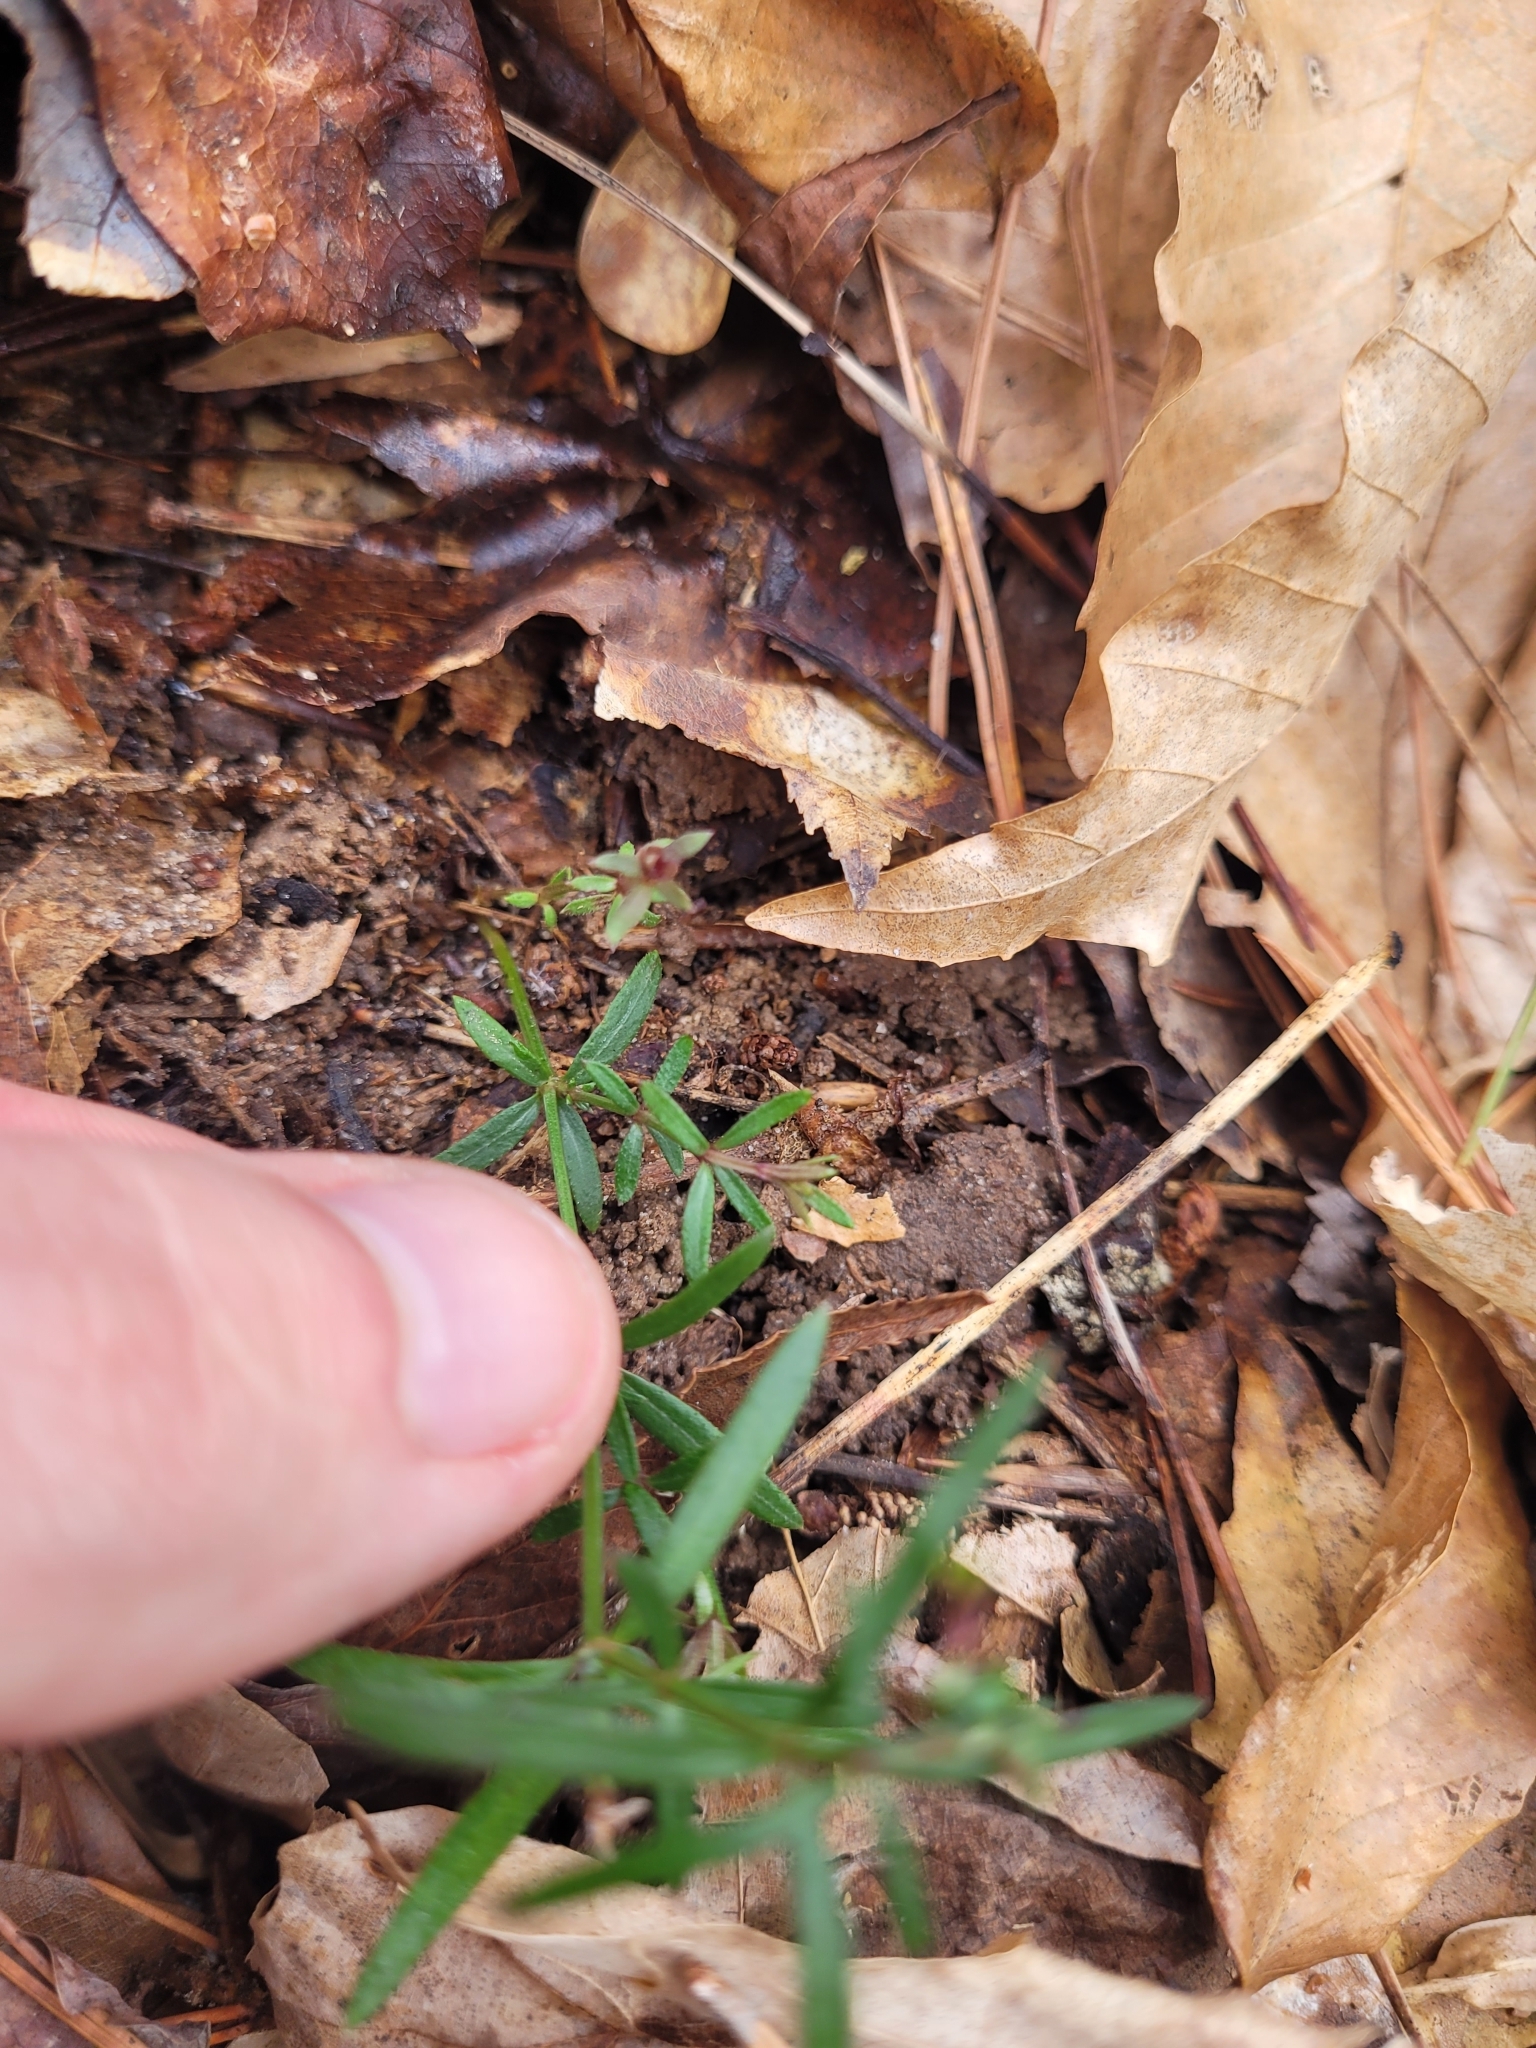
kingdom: Plantae
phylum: Tracheophyta
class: Magnoliopsida
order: Gentianales
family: Rubiaceae
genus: Galium
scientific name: Galium uniflorum
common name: One-flower bedstraw
